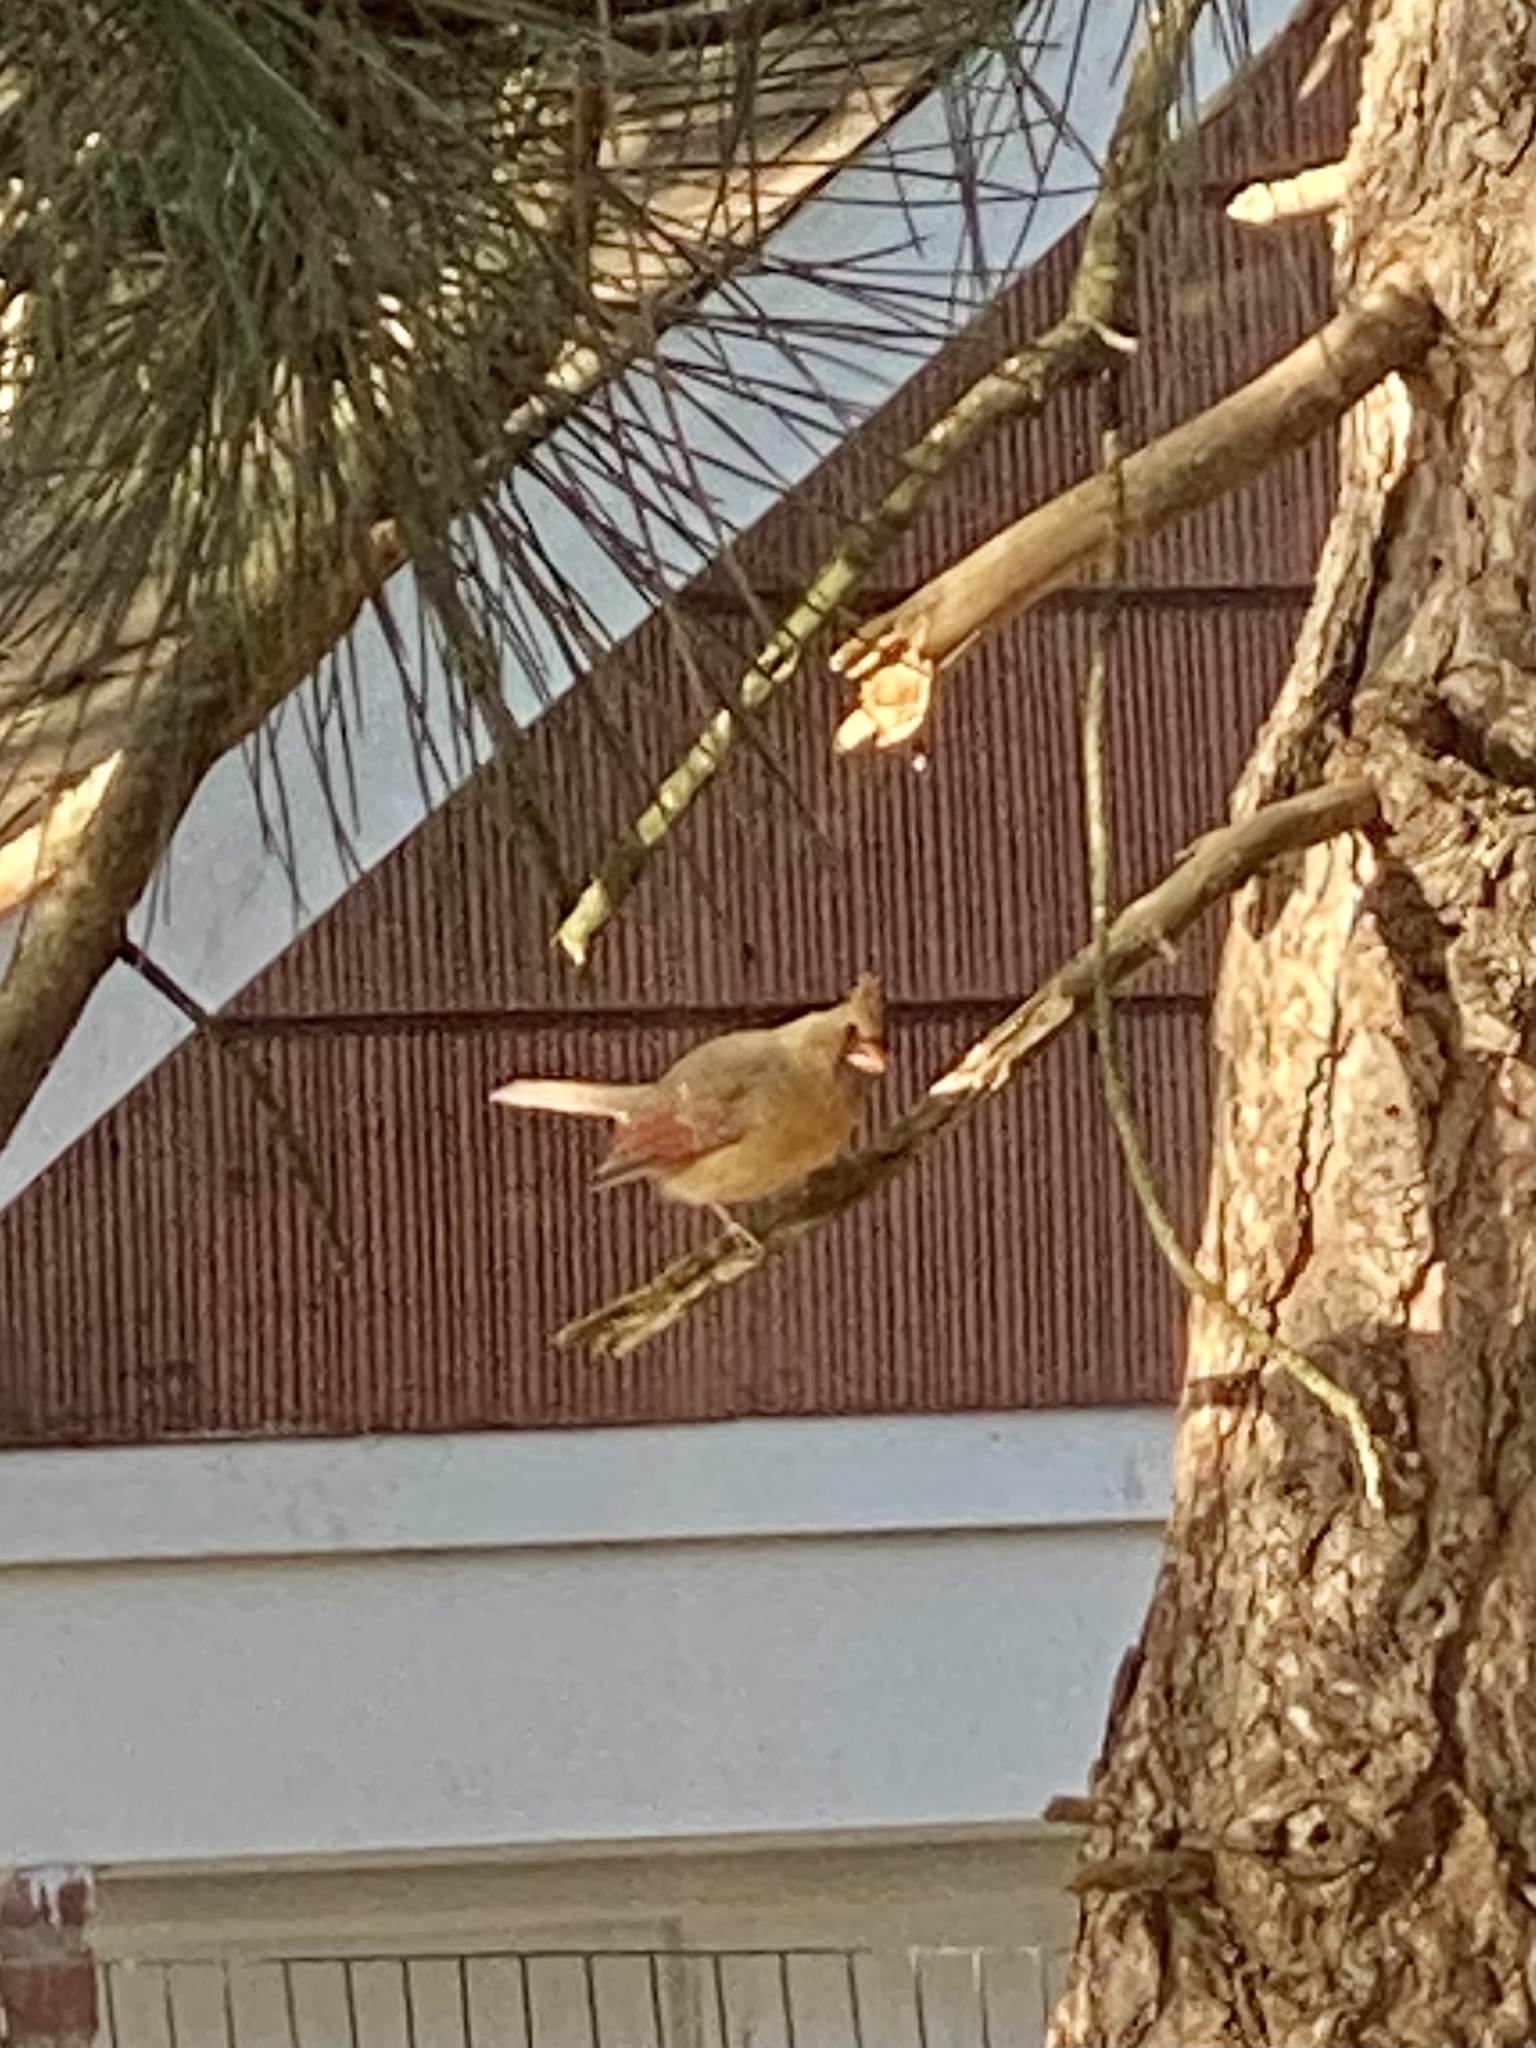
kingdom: Animalia
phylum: Chordata
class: Aves
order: Passeriformes
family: Cardinalidae
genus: Cardinalis
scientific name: Cardinalis cardinalis
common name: Northern cardinal
